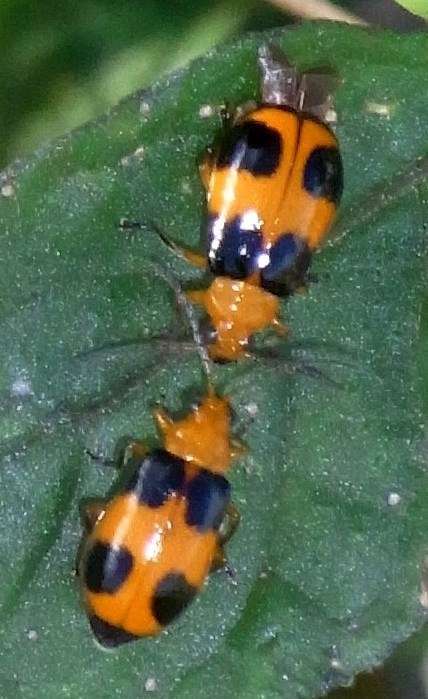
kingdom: Animalia
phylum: Arthropoda
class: Insecta
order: Coleoptera
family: Chrysomelidae
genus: Aulacophora
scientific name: Aulacophora
